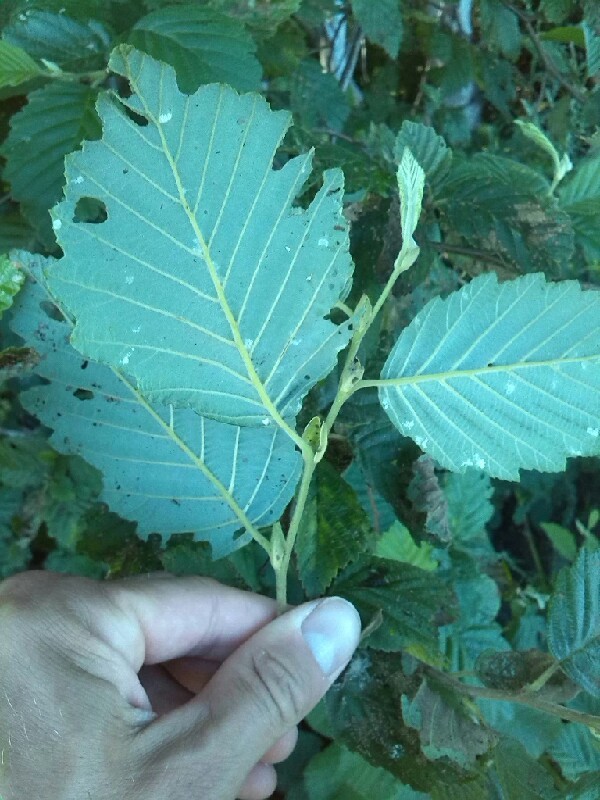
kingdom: Plantae
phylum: Tracheophyta
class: Magnoliopsida
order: Fagales
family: Betulaceae
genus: Alnus
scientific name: Alnus incana
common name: Grey alder
